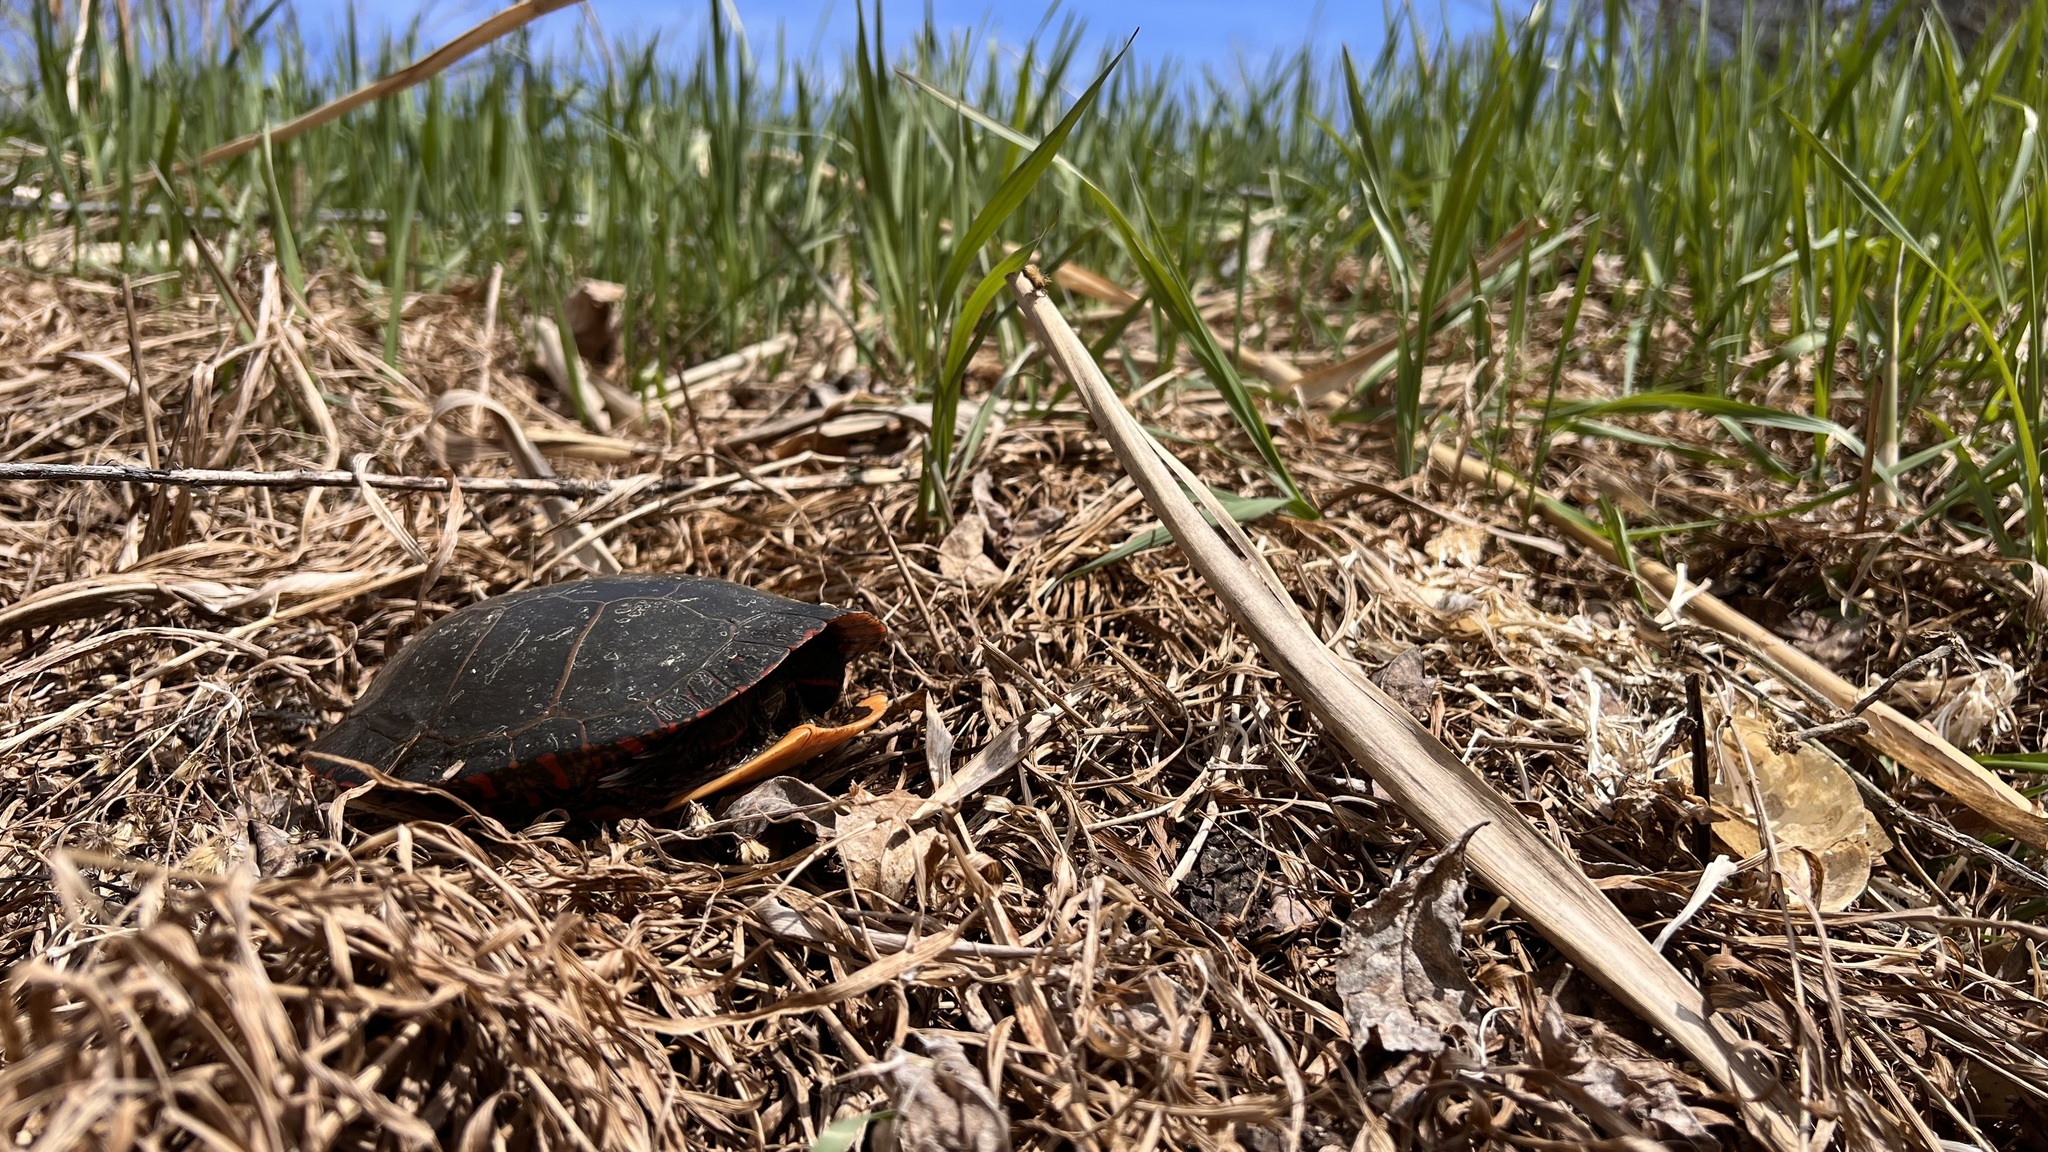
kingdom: Animalia
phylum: Chordata
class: Testudines
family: Emydidae
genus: Chrysemys
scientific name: Chrysemys picta
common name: Painted turtle
